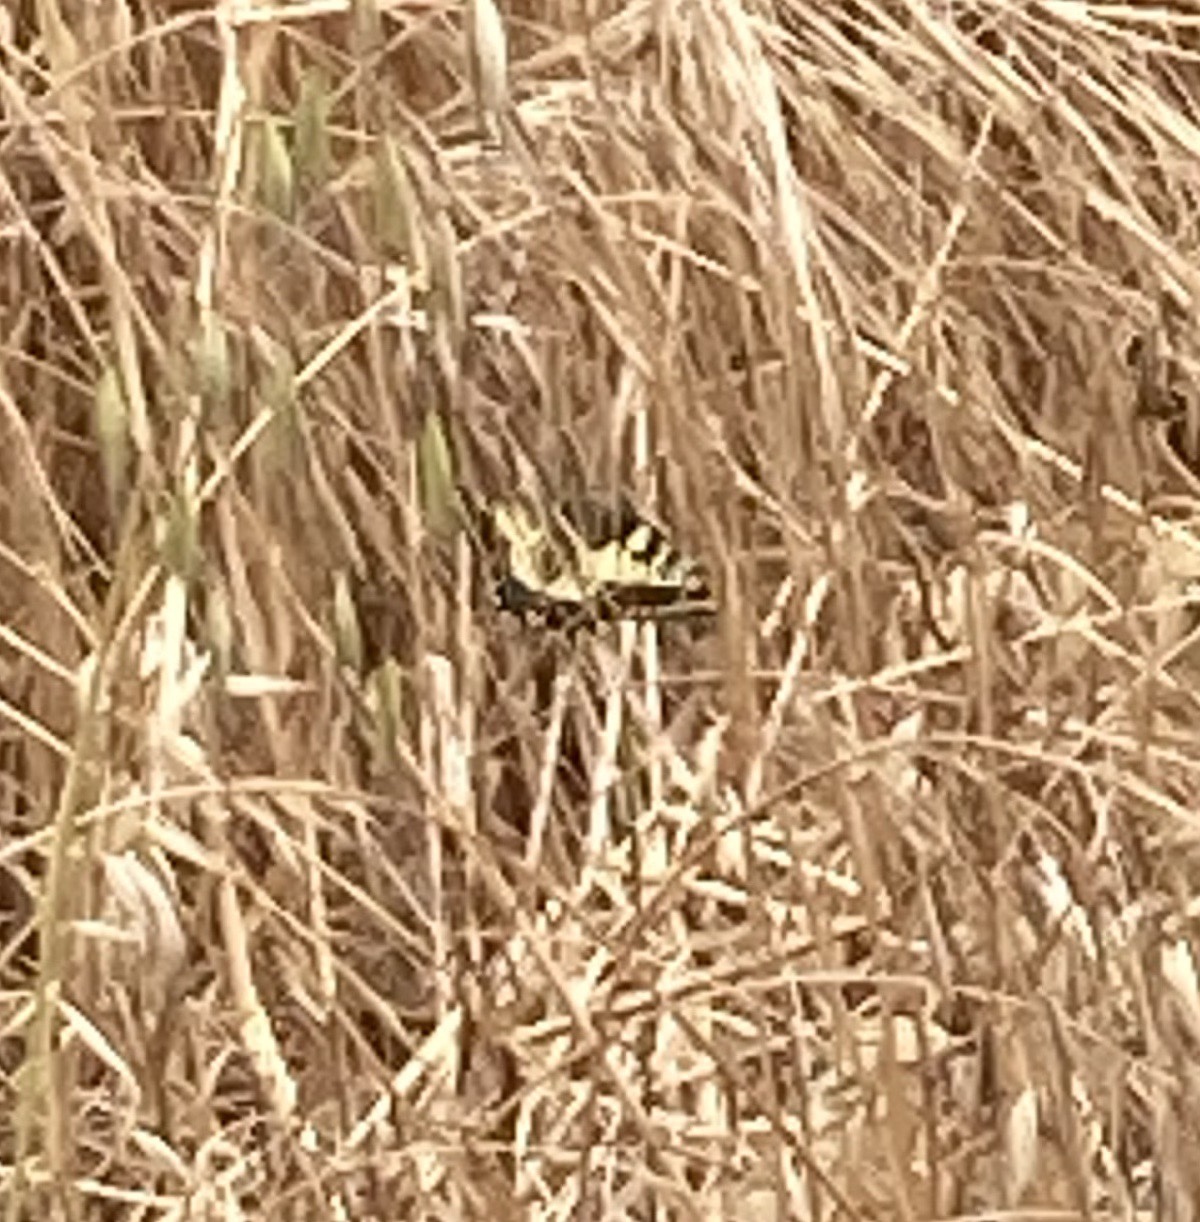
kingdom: Animalia
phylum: Arthropoda
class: Insecta
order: Lepidoptera
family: Papilionidae
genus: Papilio
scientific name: Papilio machaon
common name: Swallowtail
